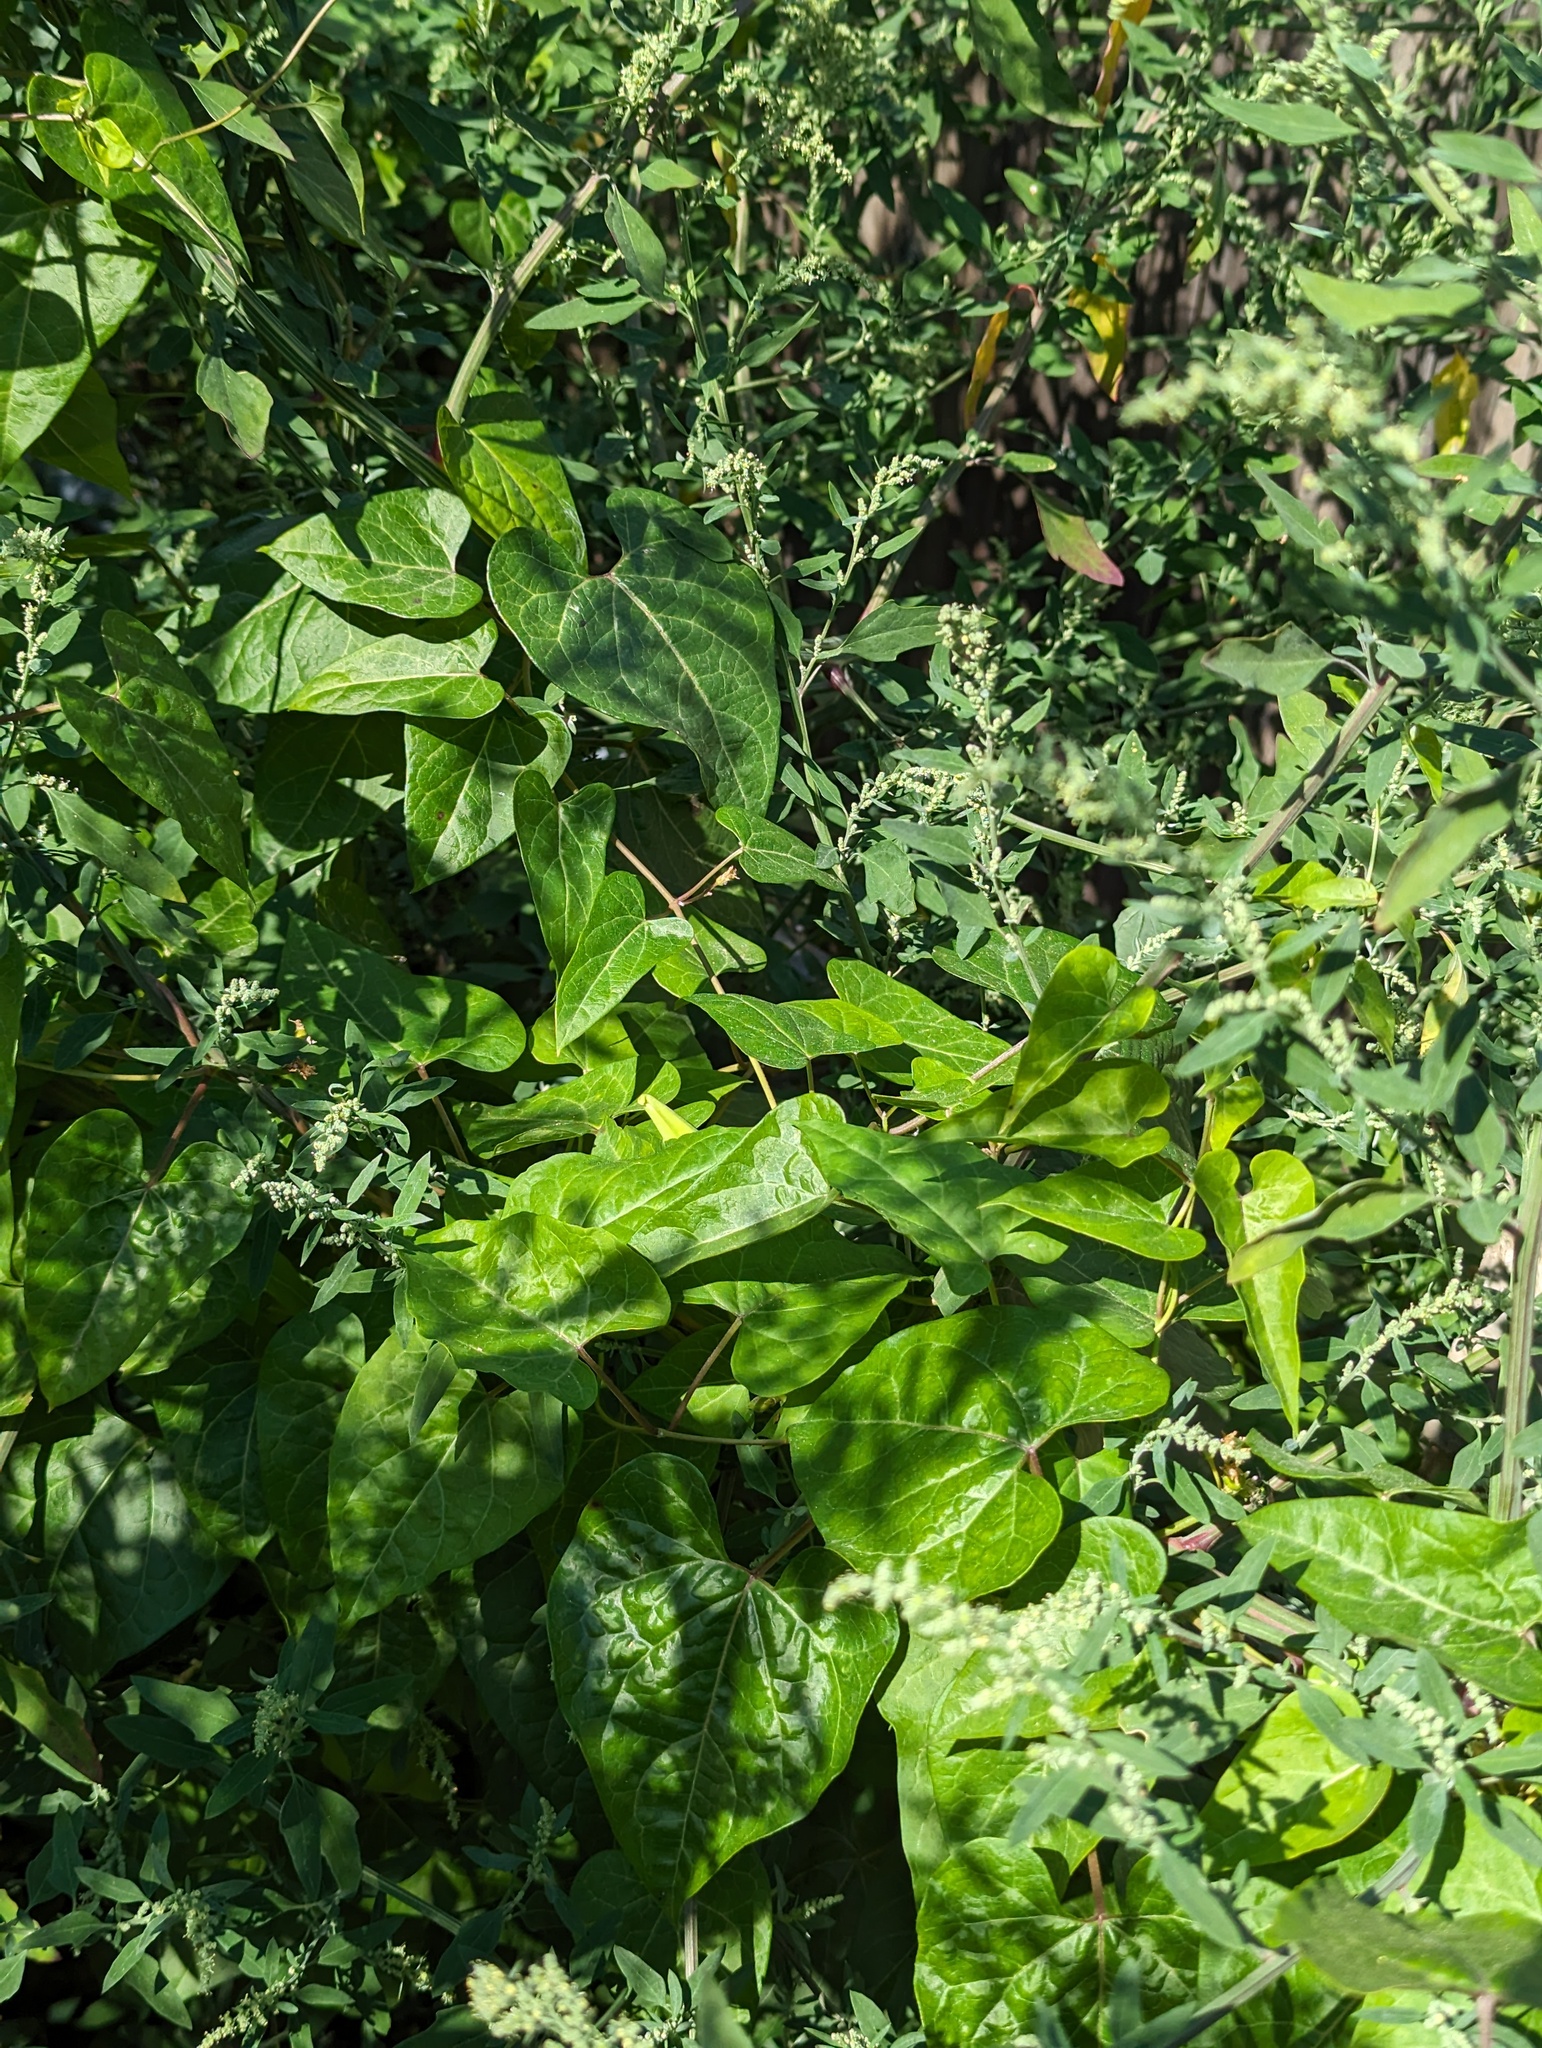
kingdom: Plantae
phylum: Tracheophyta
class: Magnoliopsida
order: Gentianales
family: Apocynaceae
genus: Cynanchum
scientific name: Cynanchum laeve
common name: Sandvine
